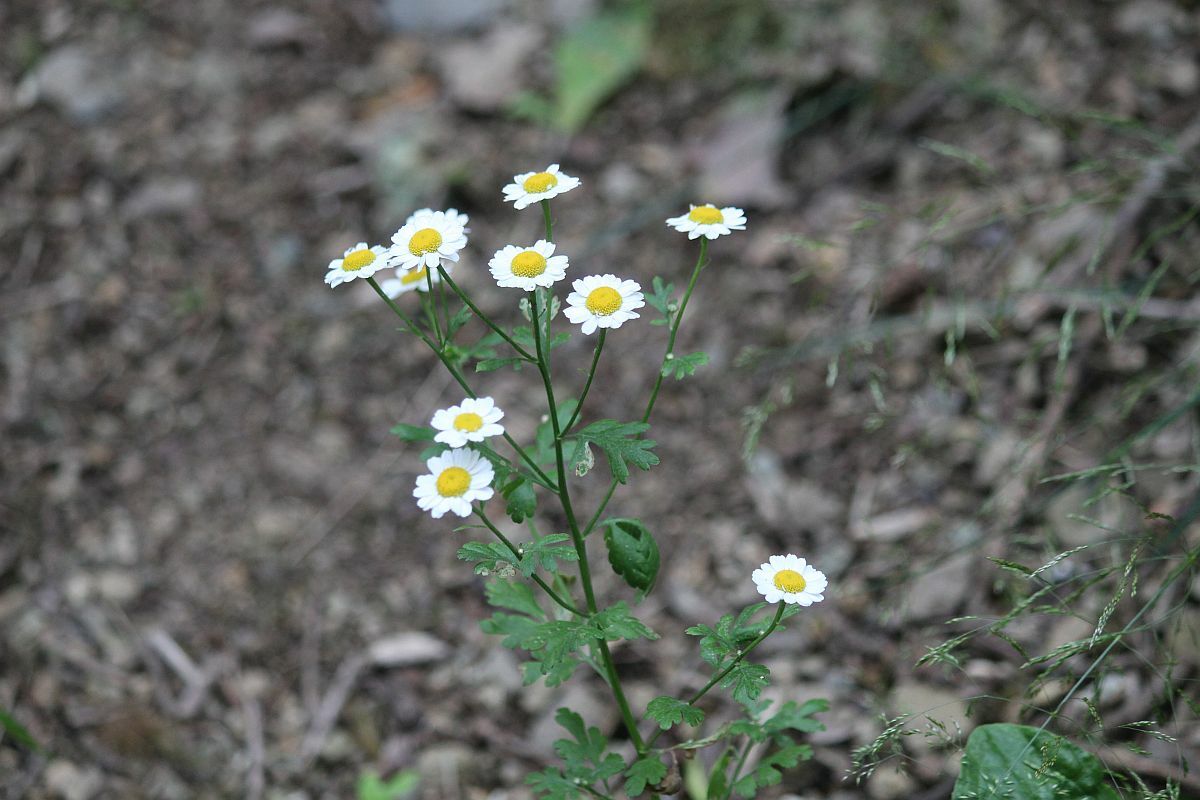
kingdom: Plantae
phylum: Tracheophyta
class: Magnoliopsida
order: Asterales
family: Asteraceae
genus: Tanacetum
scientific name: Tanacetum parthenium
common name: Feverfew
